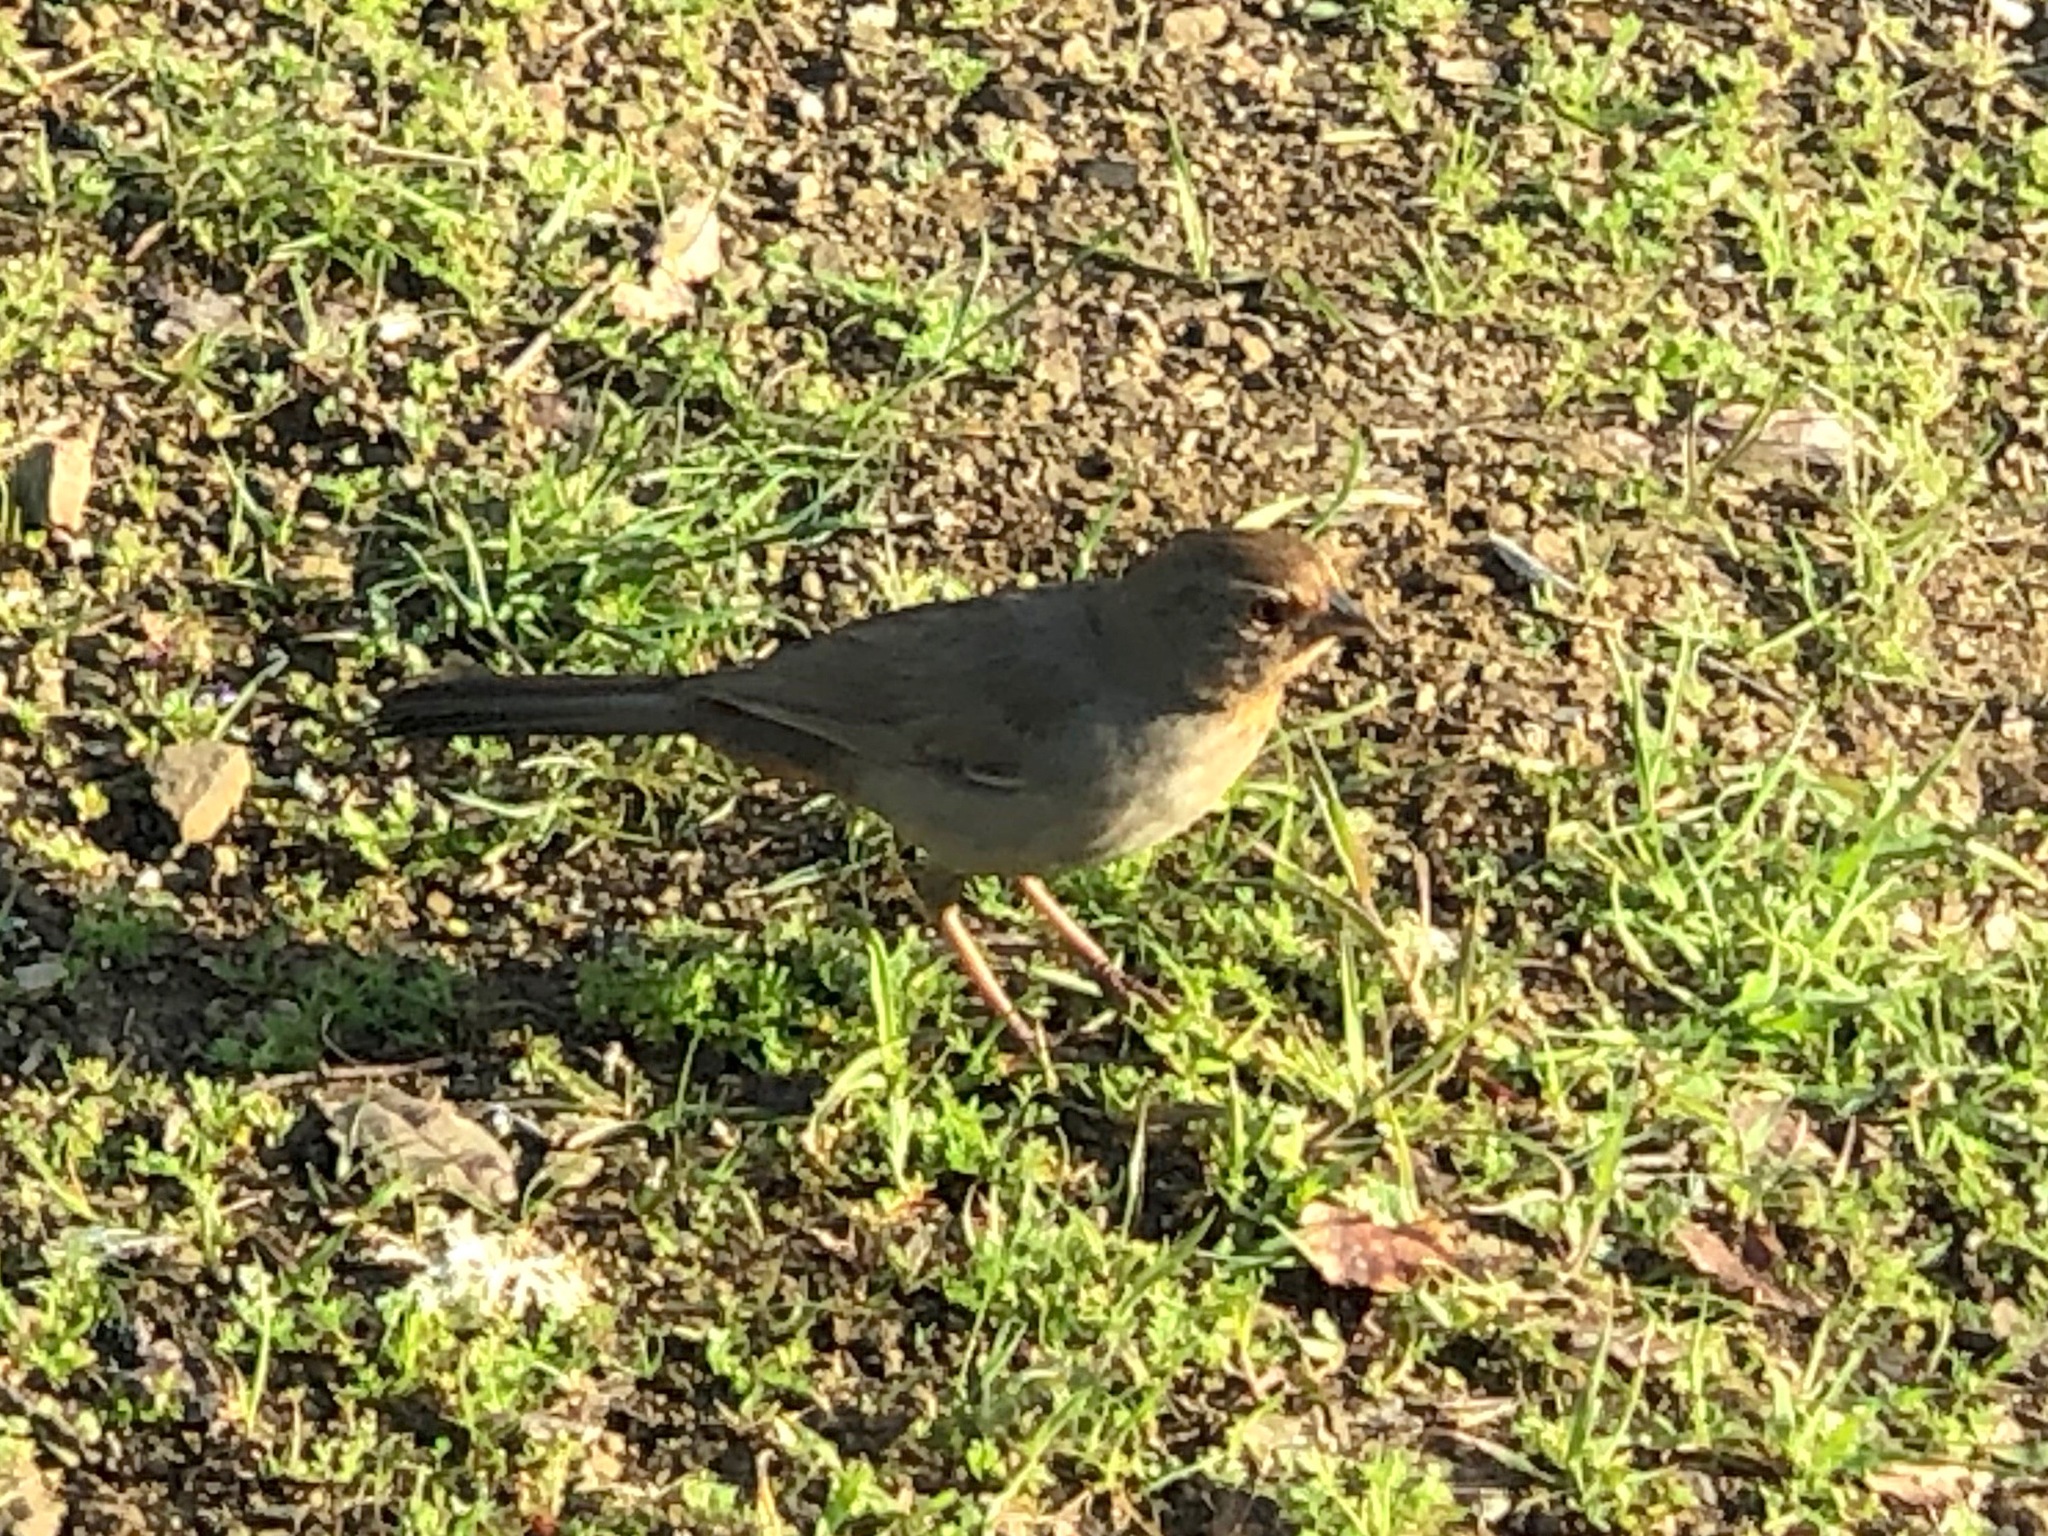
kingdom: Animalia
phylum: Chordata
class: Aves
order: Passeriformes
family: Passerellidae
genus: Melozone
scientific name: Melozone crissalis
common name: California towhee
